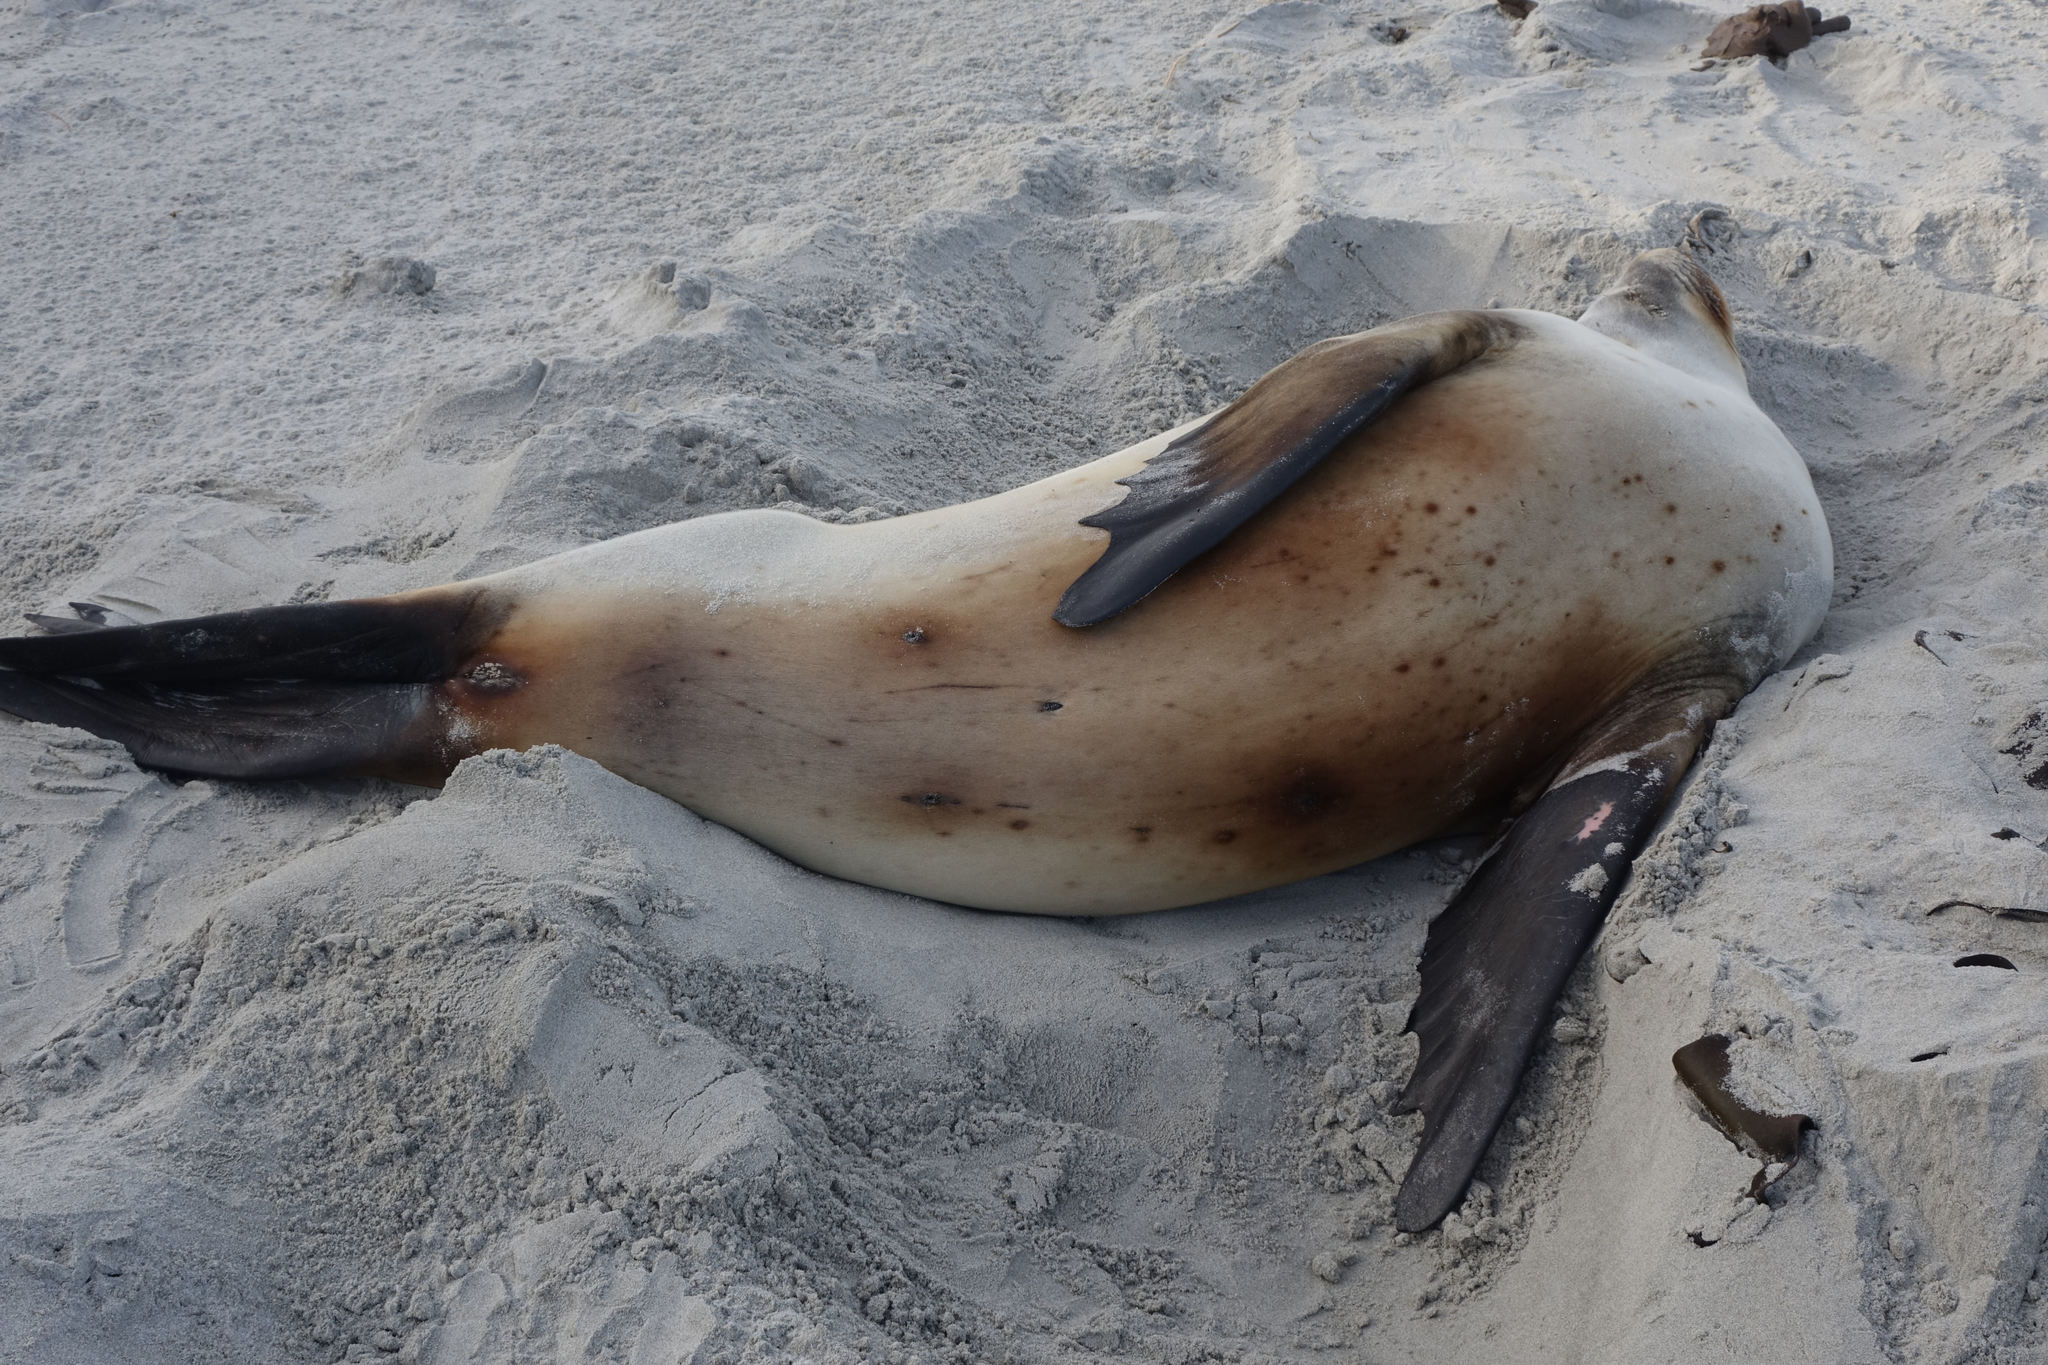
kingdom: Animalia
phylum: Chordata
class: Mammalia
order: Carnivora
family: Otariidae
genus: Phocarctos
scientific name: Phocarctos hookeri
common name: New zealand sea lion
